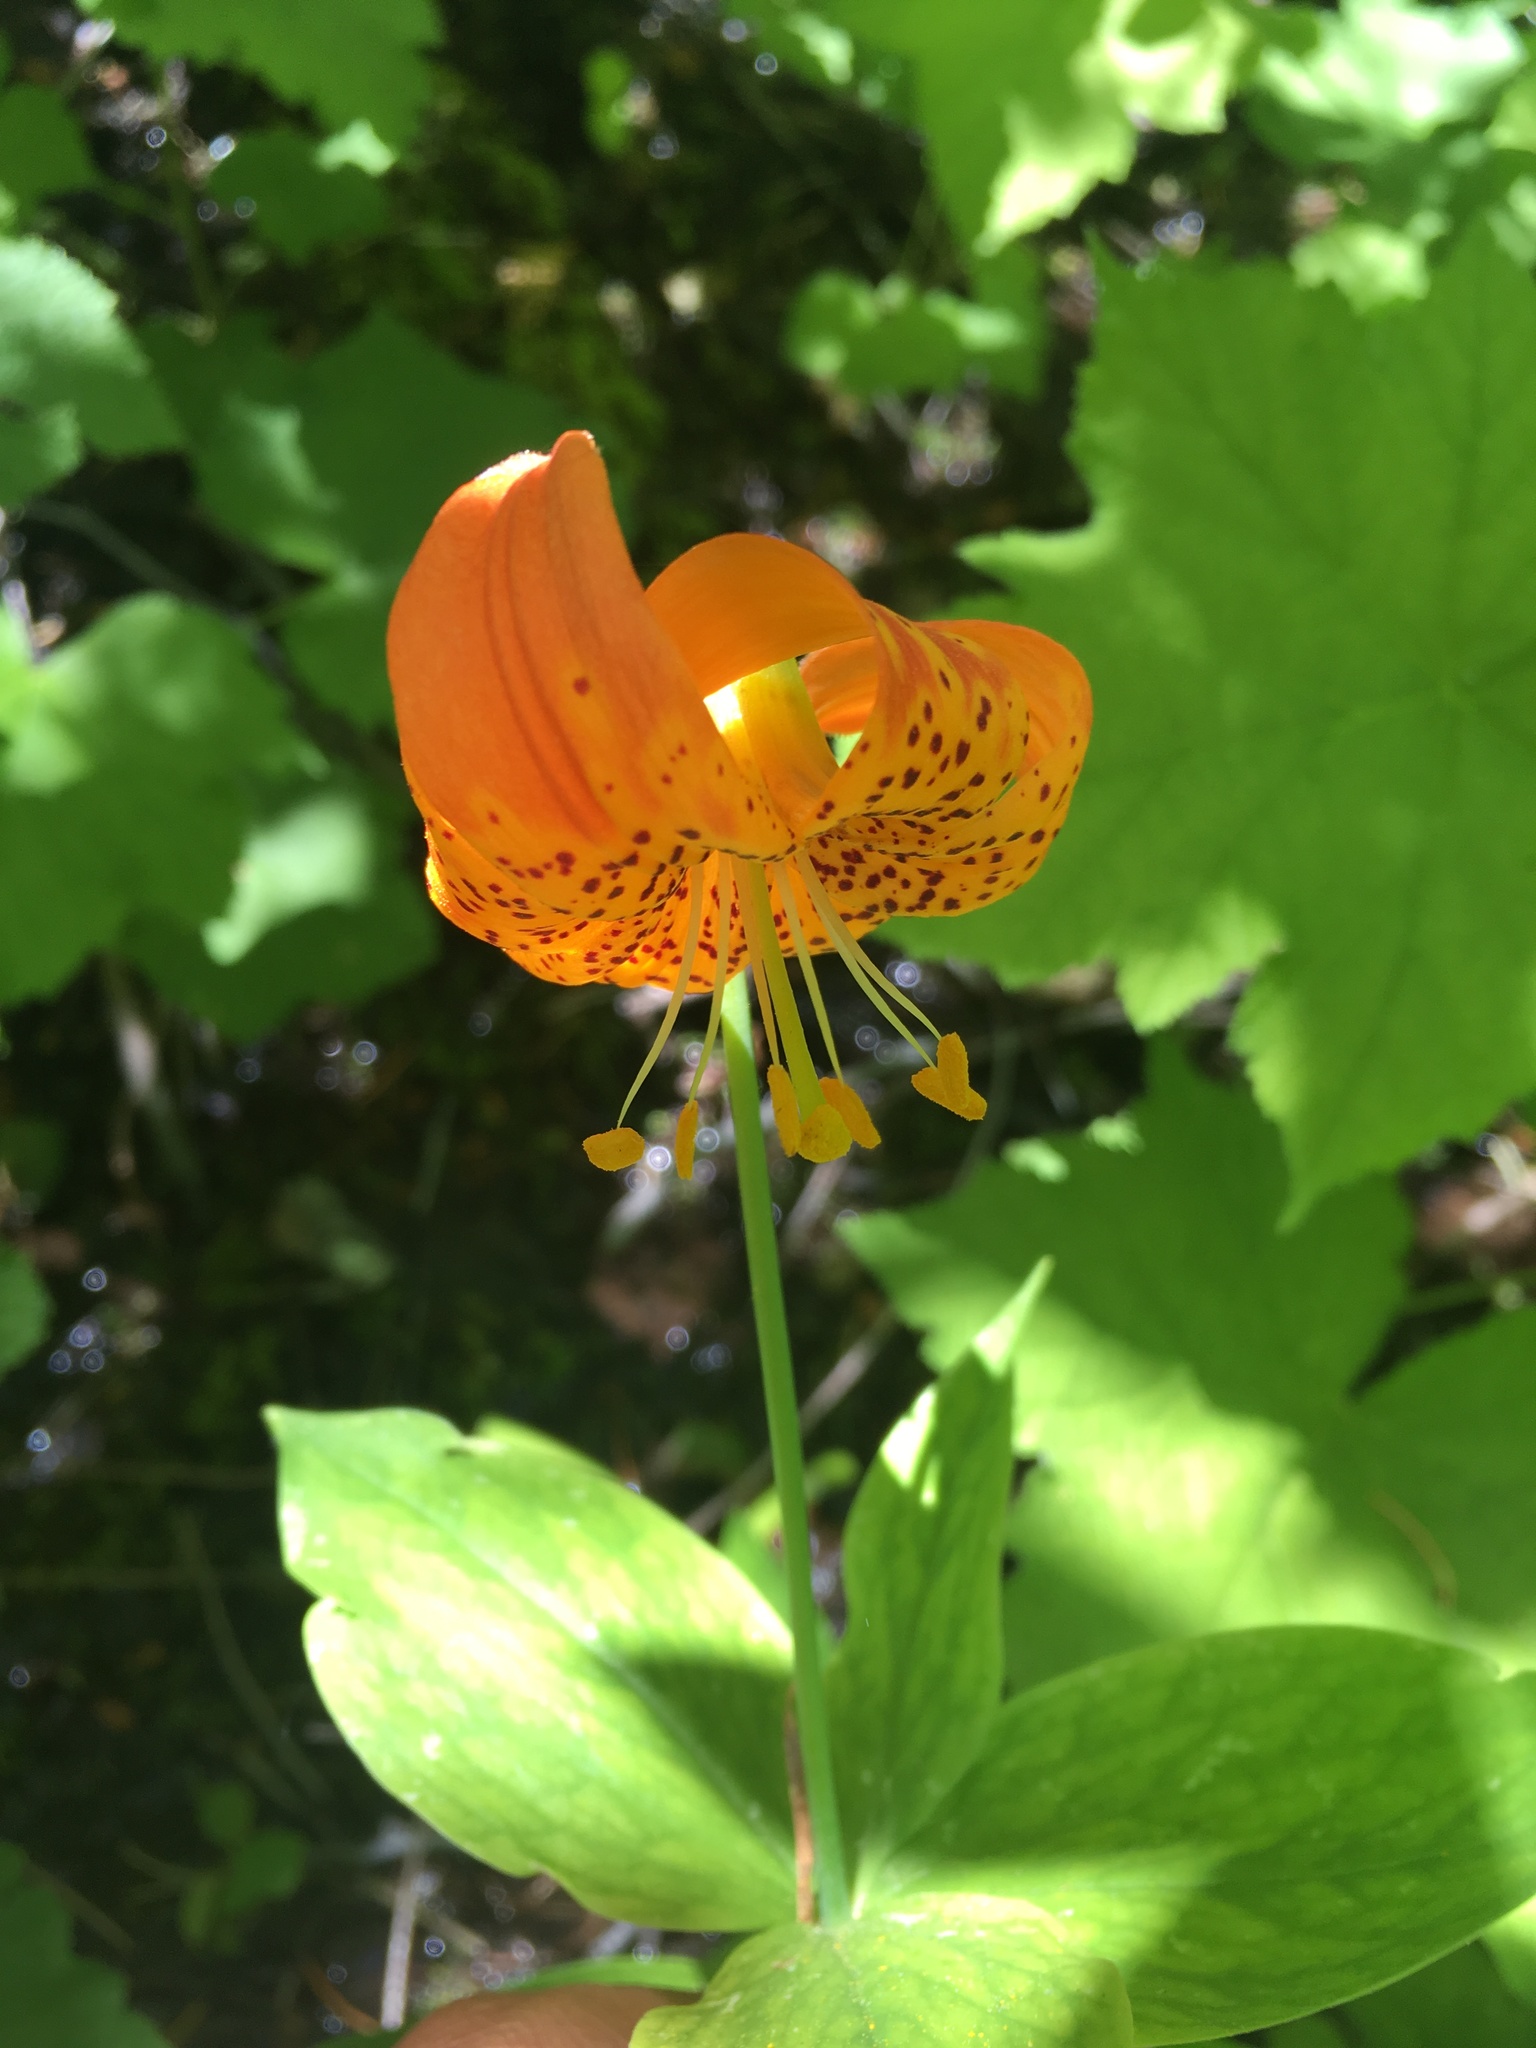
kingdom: Plantae
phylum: Tracheophyta
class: Liliopsida
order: Liliales
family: Liliaceae
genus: Lilium
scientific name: Lilium pardalinum
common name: Panther lily
